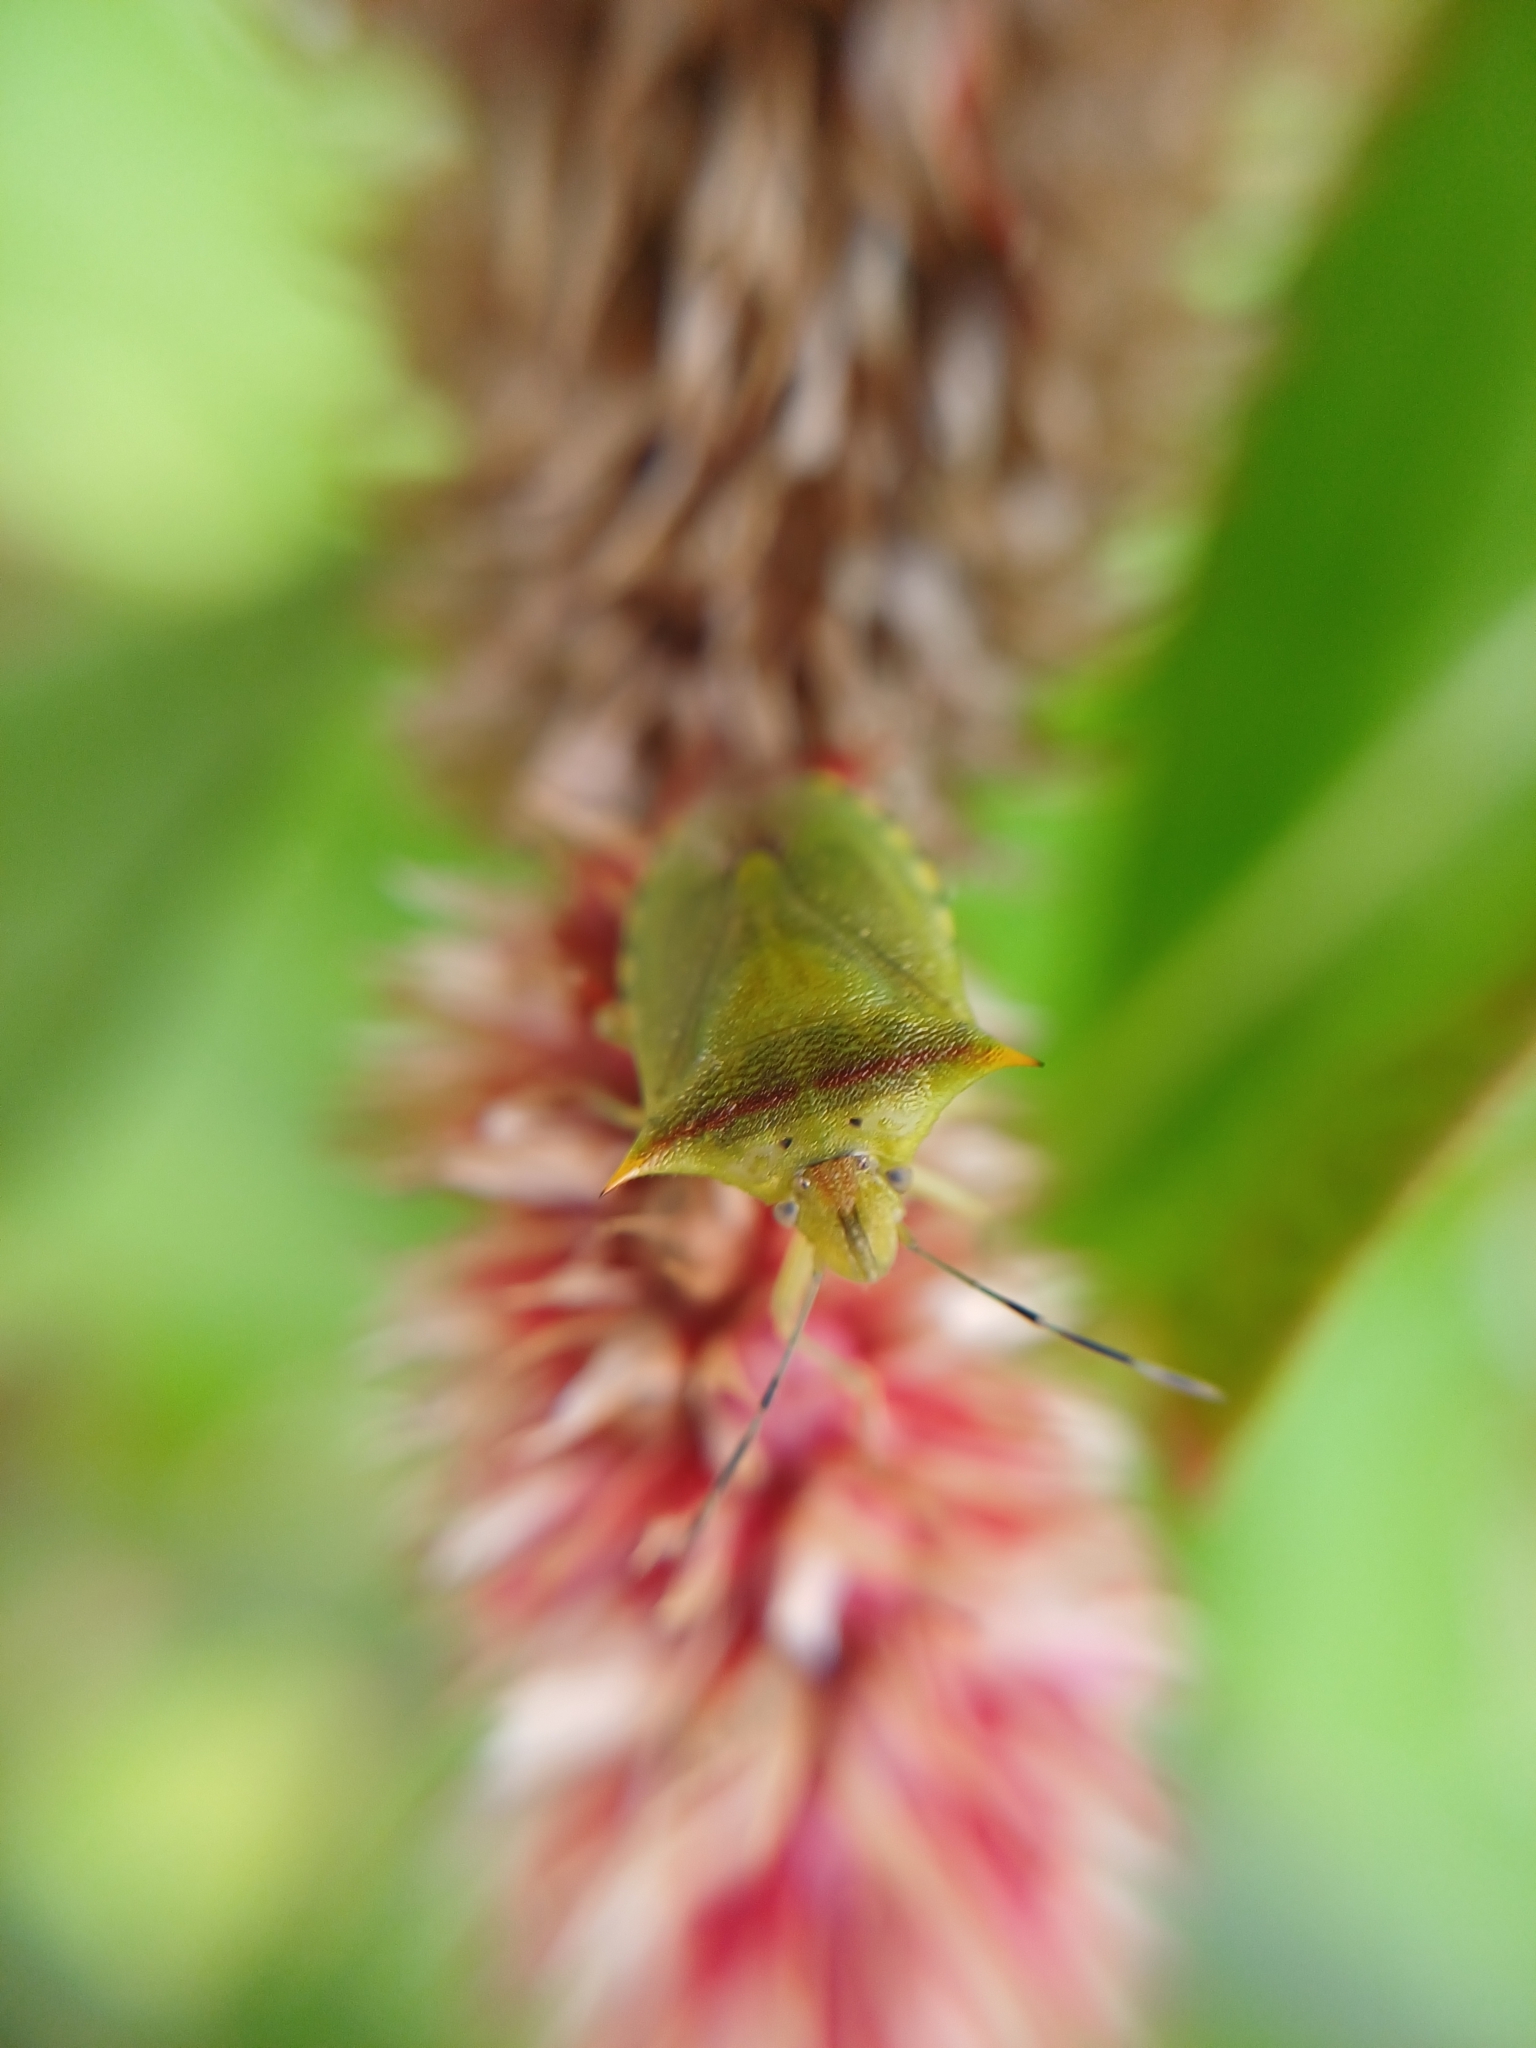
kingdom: Animalia
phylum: Arthropoda
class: Insecta
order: Hemiptera
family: Pentatomidae
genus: Thyanta
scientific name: Thyanta perditor
